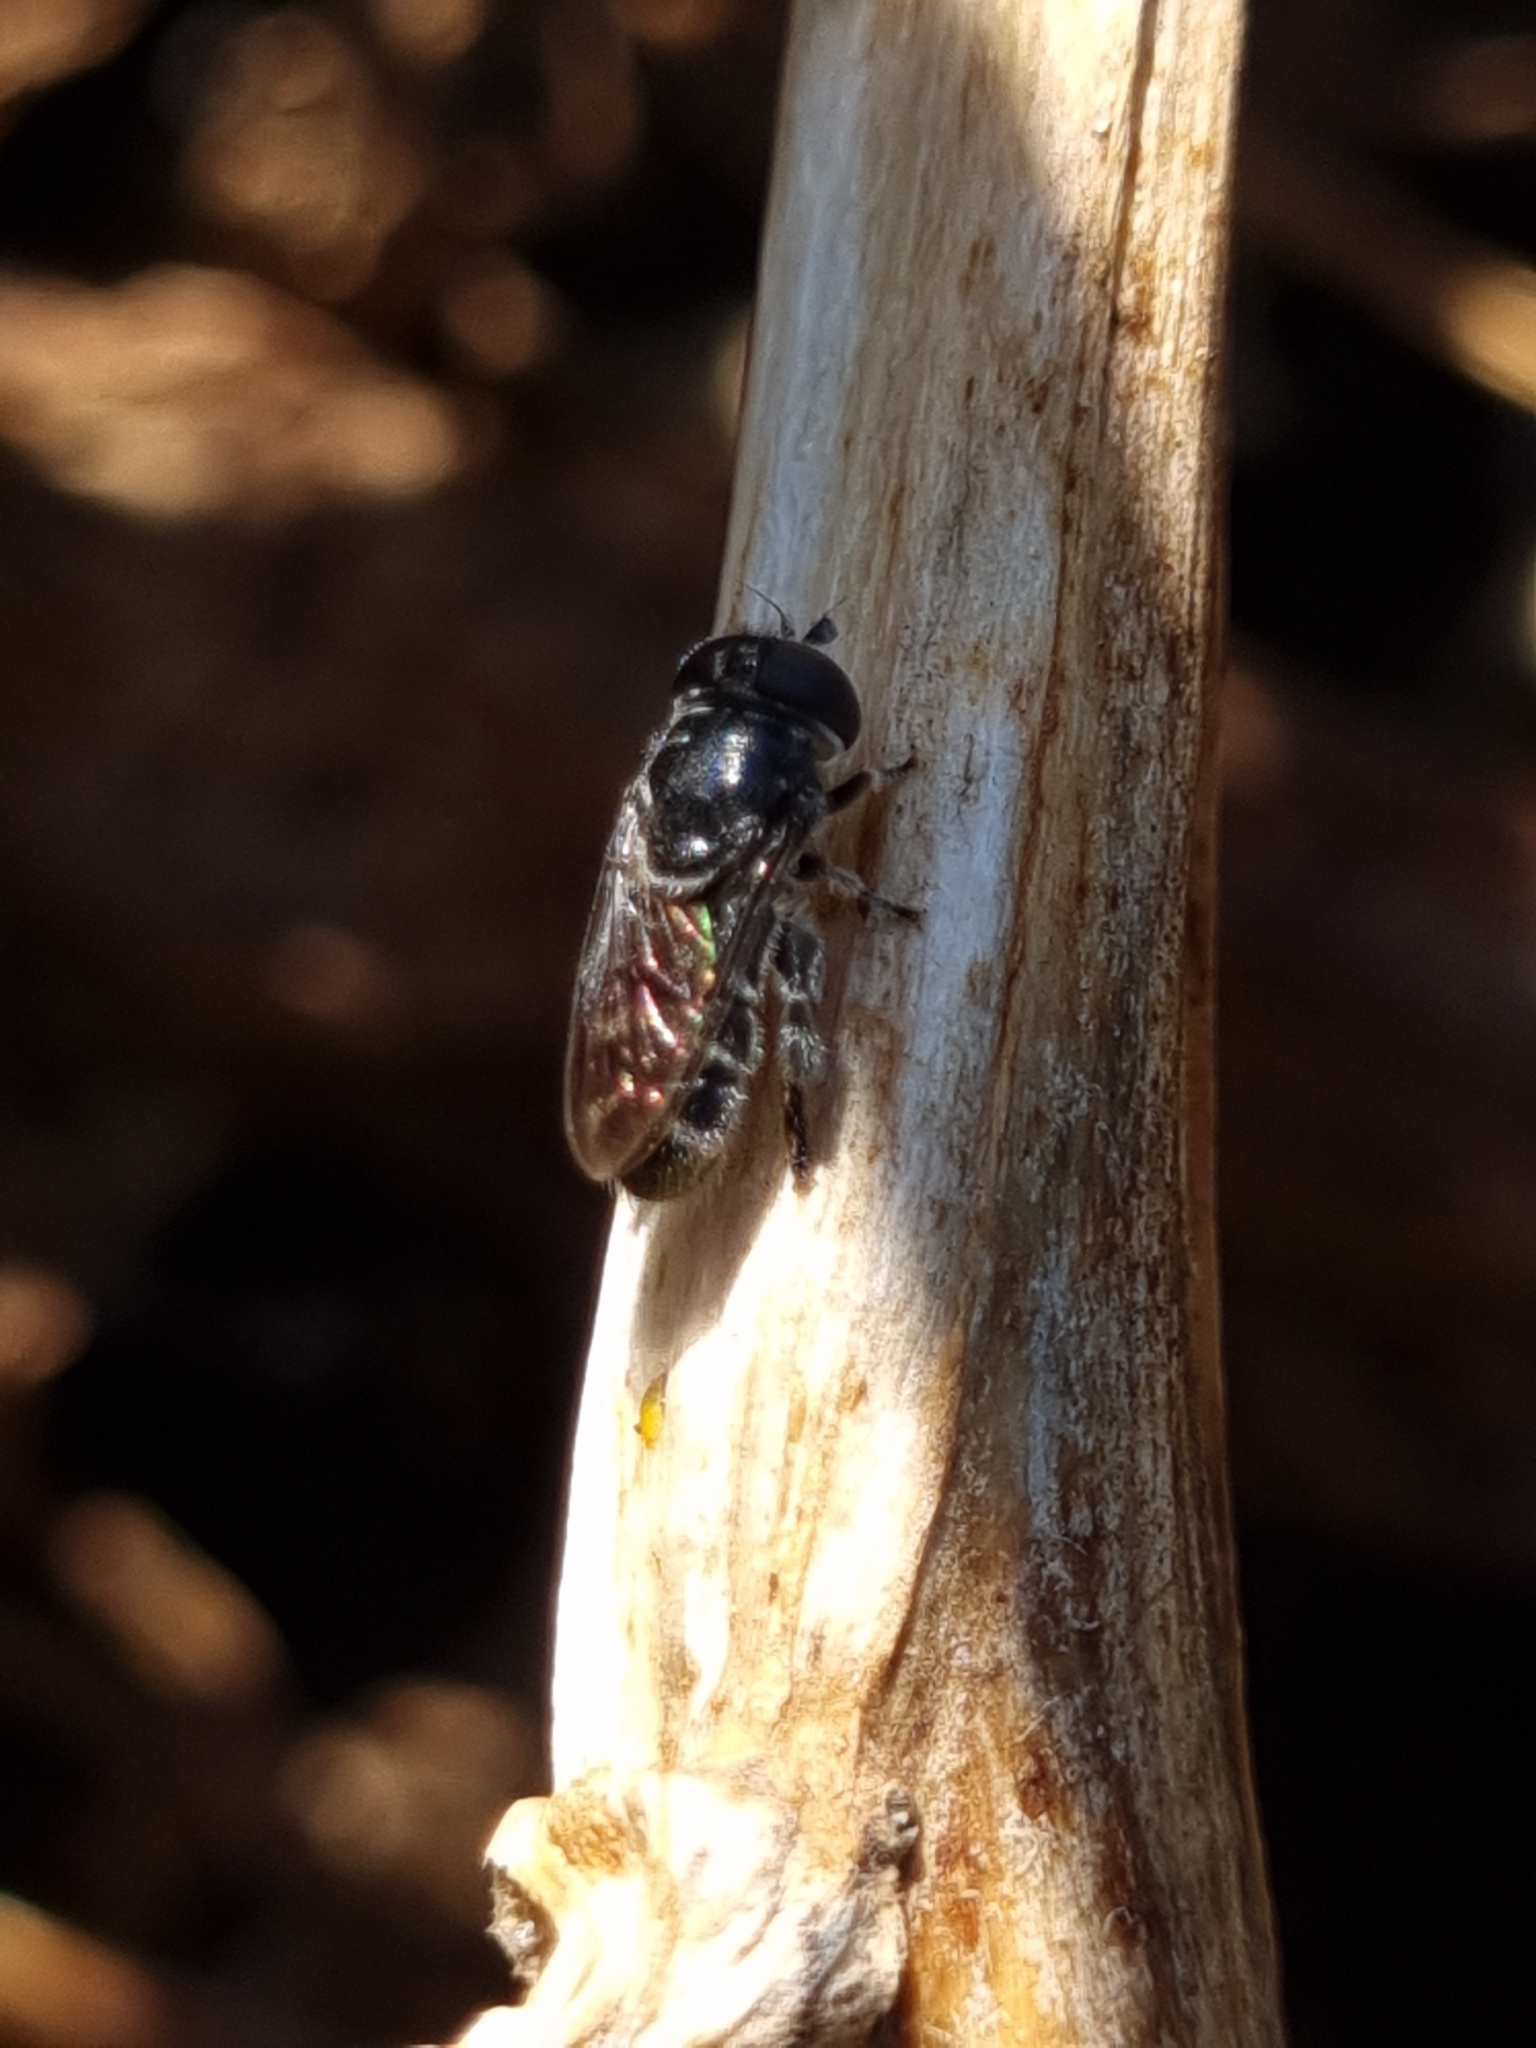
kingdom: Animalia
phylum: Arthropoda
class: Insecta
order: Diptera
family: Syrphidae
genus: Eumerus
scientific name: Eumerus
